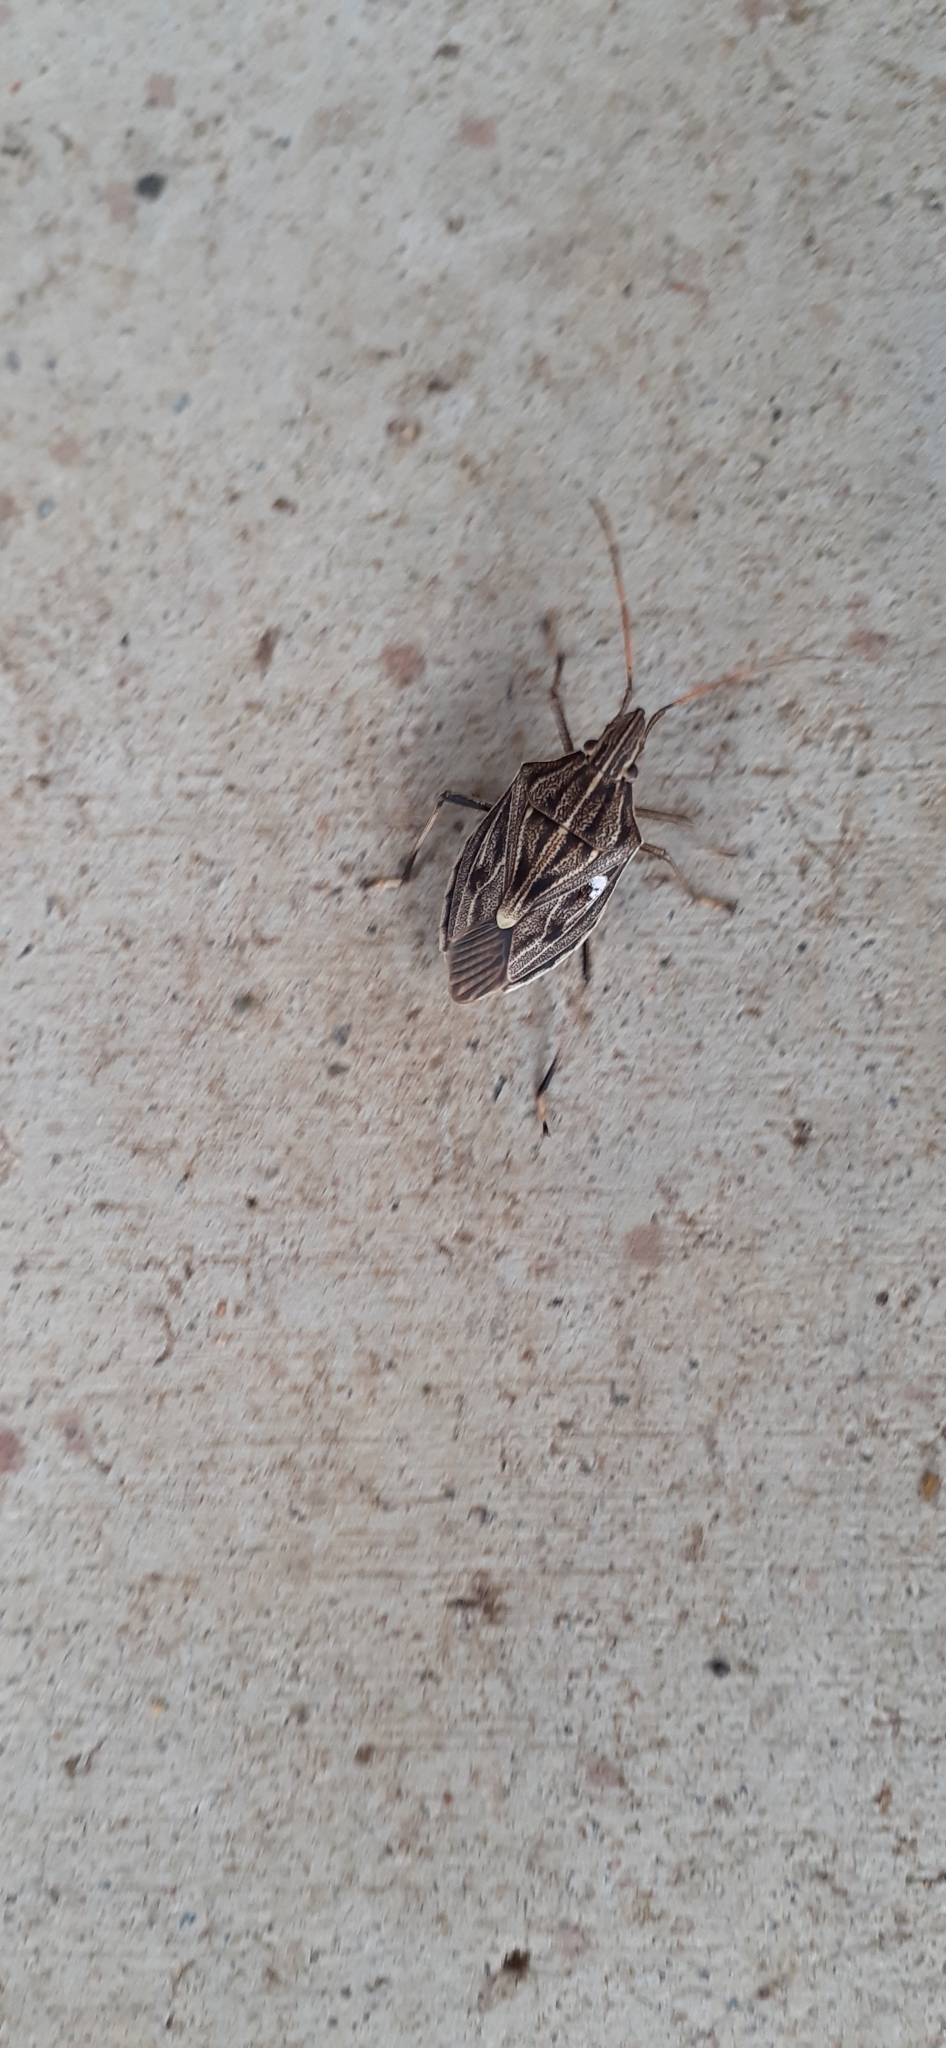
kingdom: Animalia
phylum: Arthropoda
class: Insecta
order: Hemiptera
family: Pentatomidae
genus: Poecilometis
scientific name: Poecilometis
